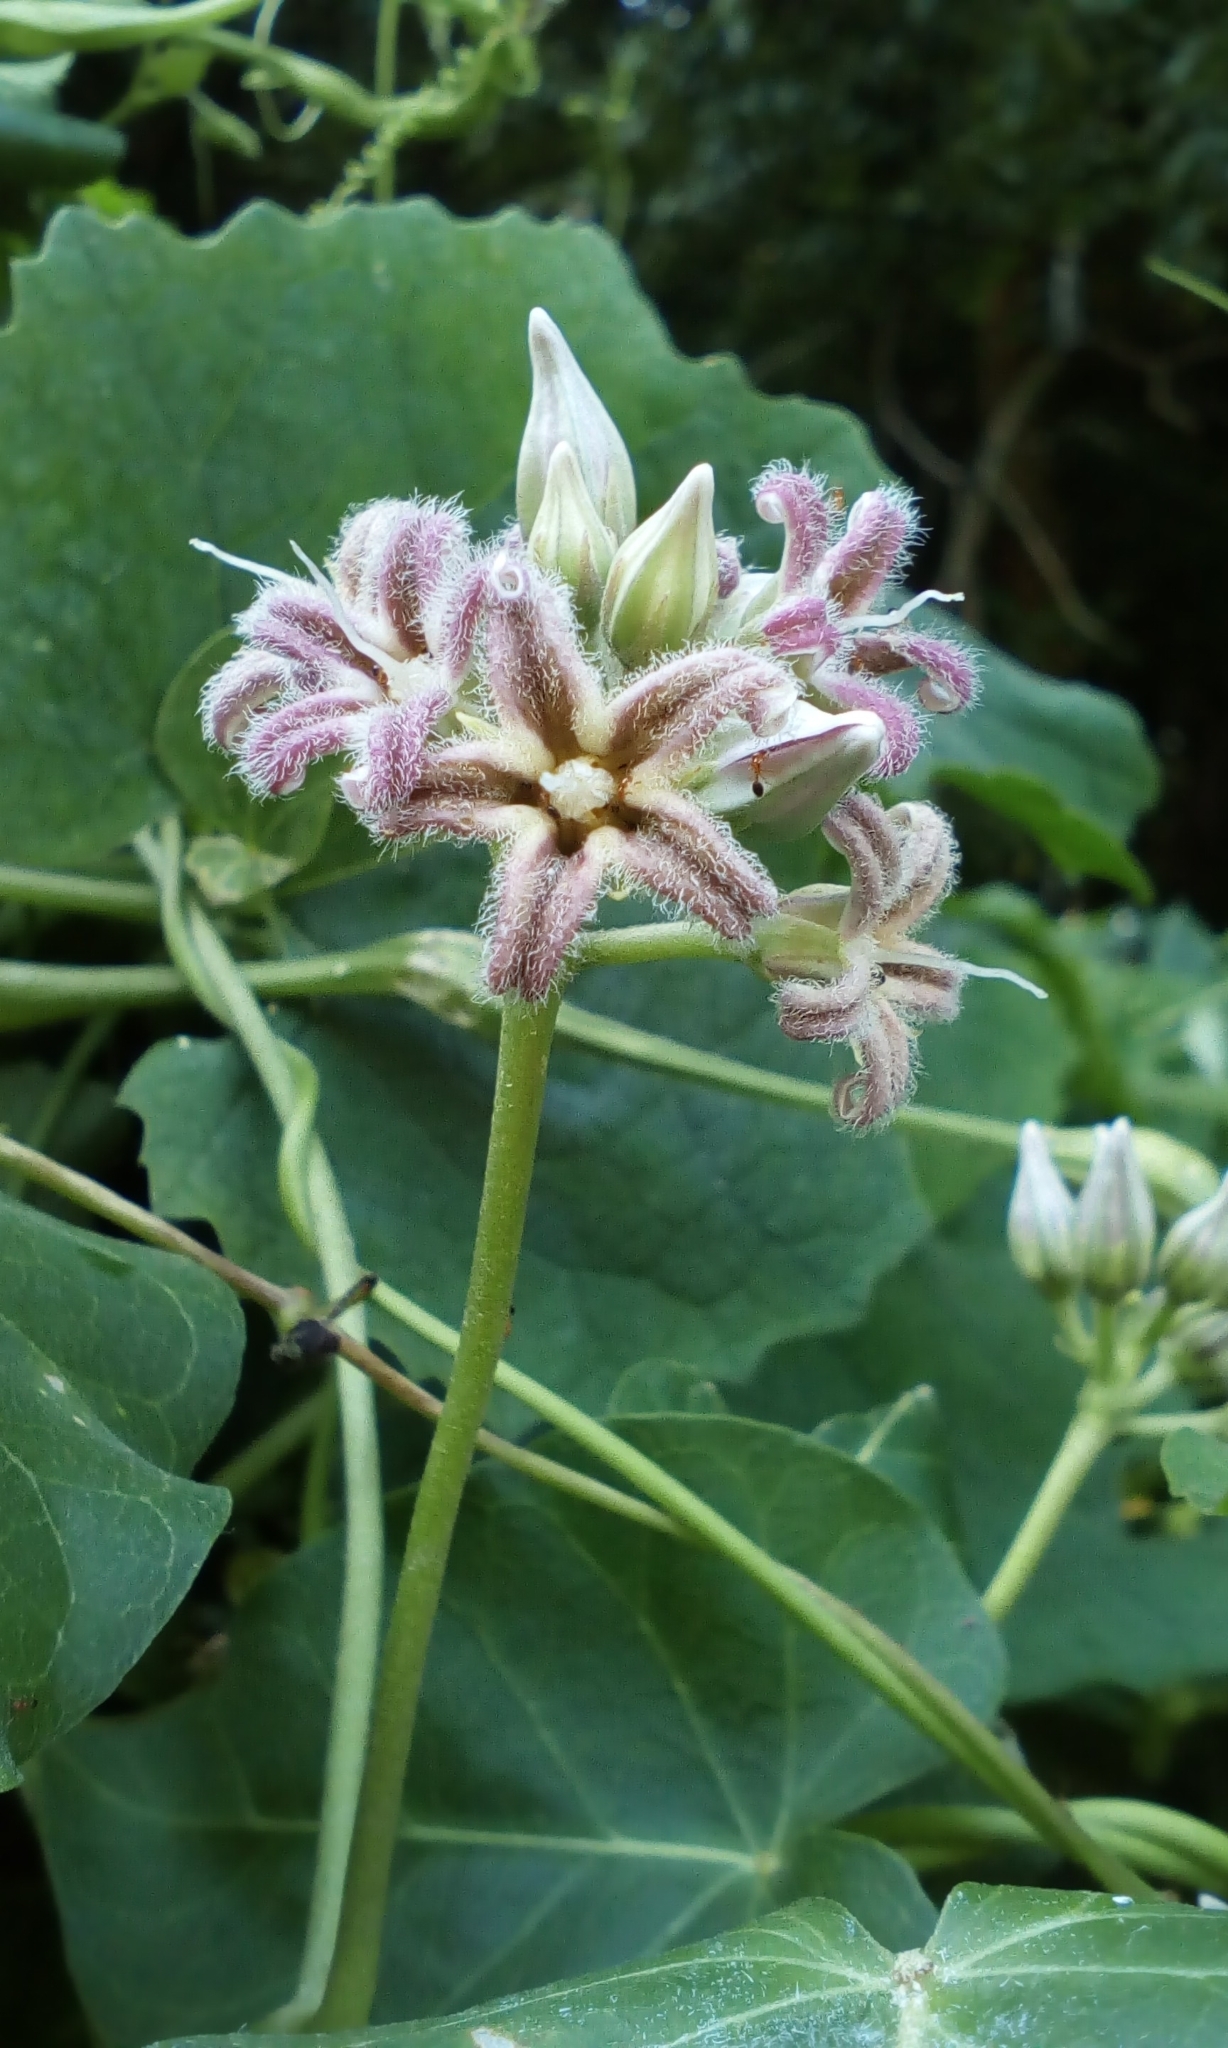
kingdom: Plantae
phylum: Tracheophyta
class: Magnoliopsida
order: Gentianales
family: Apocynaceae
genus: Cynanchum
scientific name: Cynanchum rostellatum
